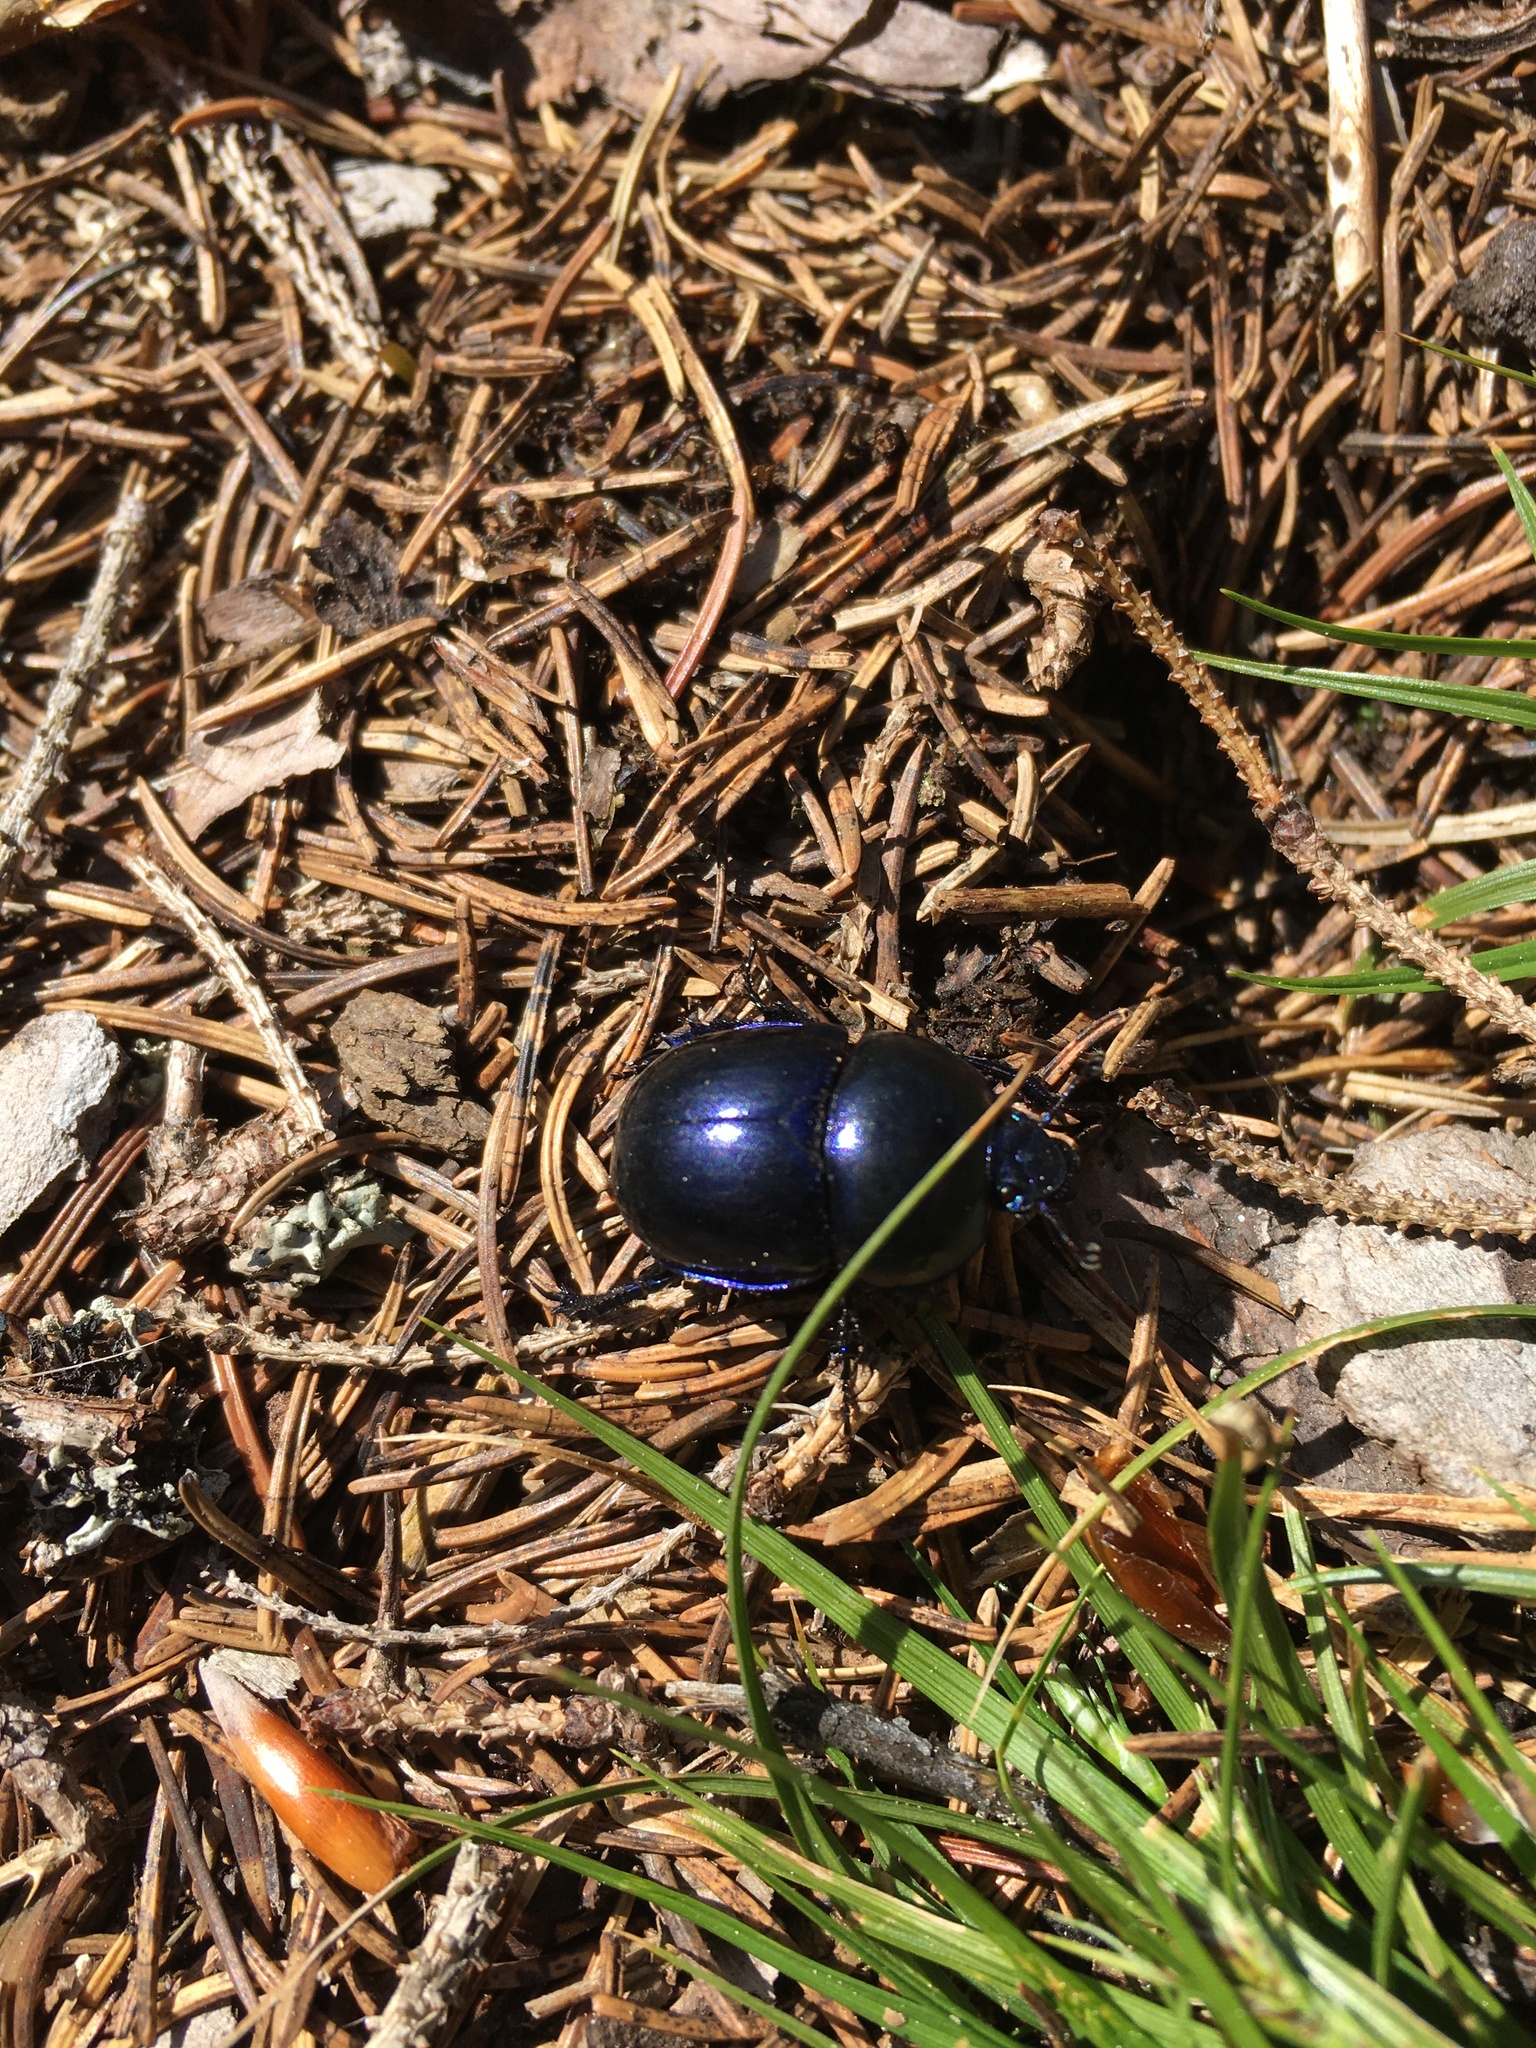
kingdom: Animalia
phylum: Arthropoda
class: Insecta
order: Coleoptera
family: Geotrupidae
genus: Trypocopris
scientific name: Trypocopris vernalis
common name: Spring dumbledor
